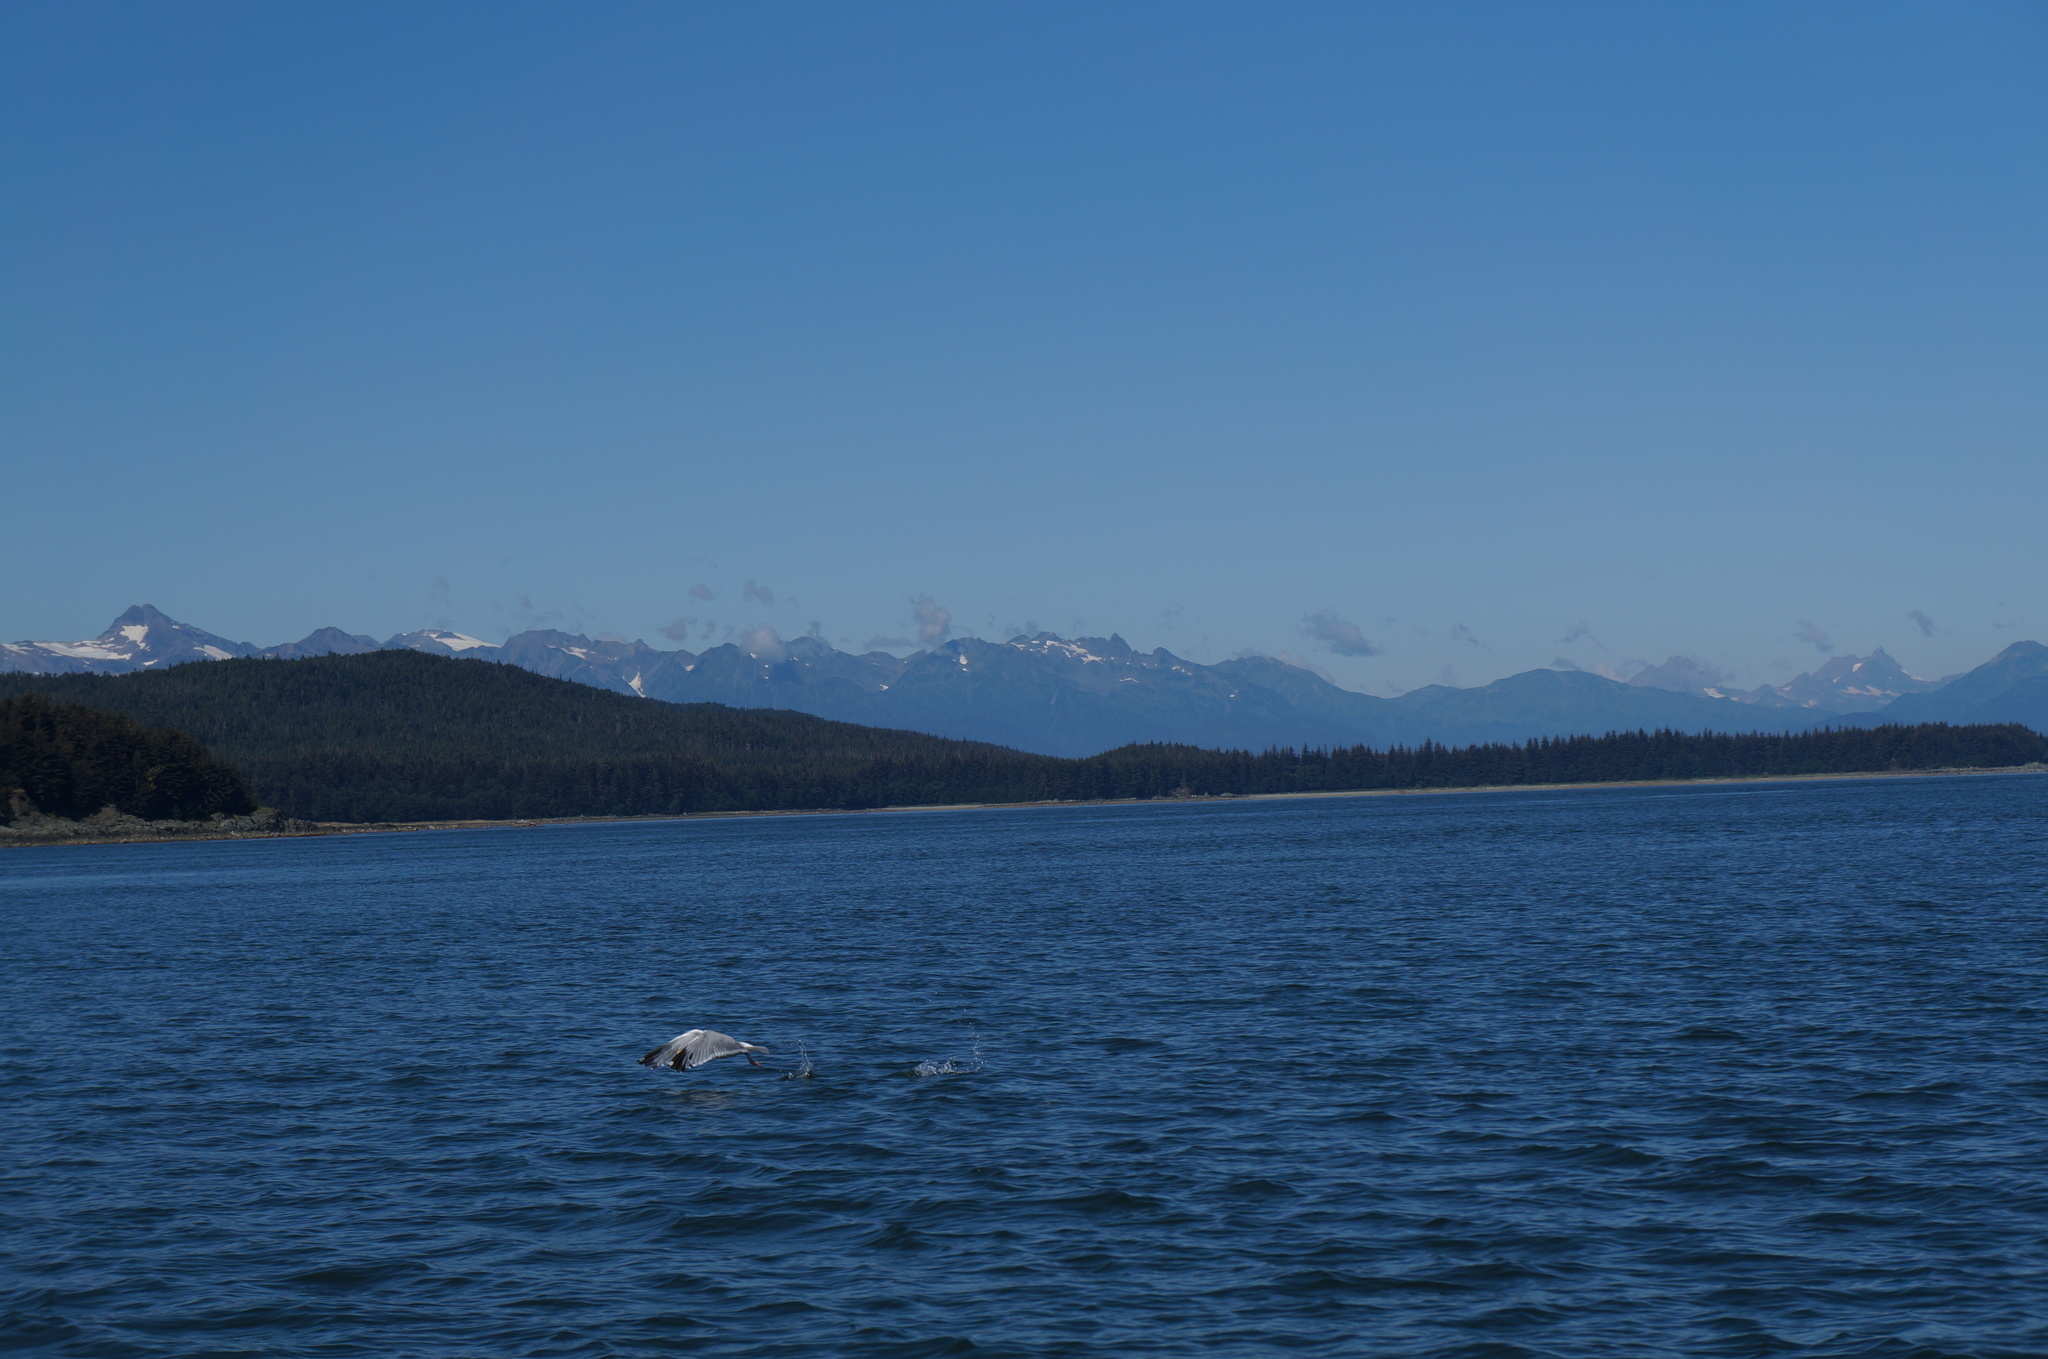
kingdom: Animalia
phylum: Chordata
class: Aves
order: Charadriiformes
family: Laridae
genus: Larus
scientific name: Larus argentatus
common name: Herring gull
